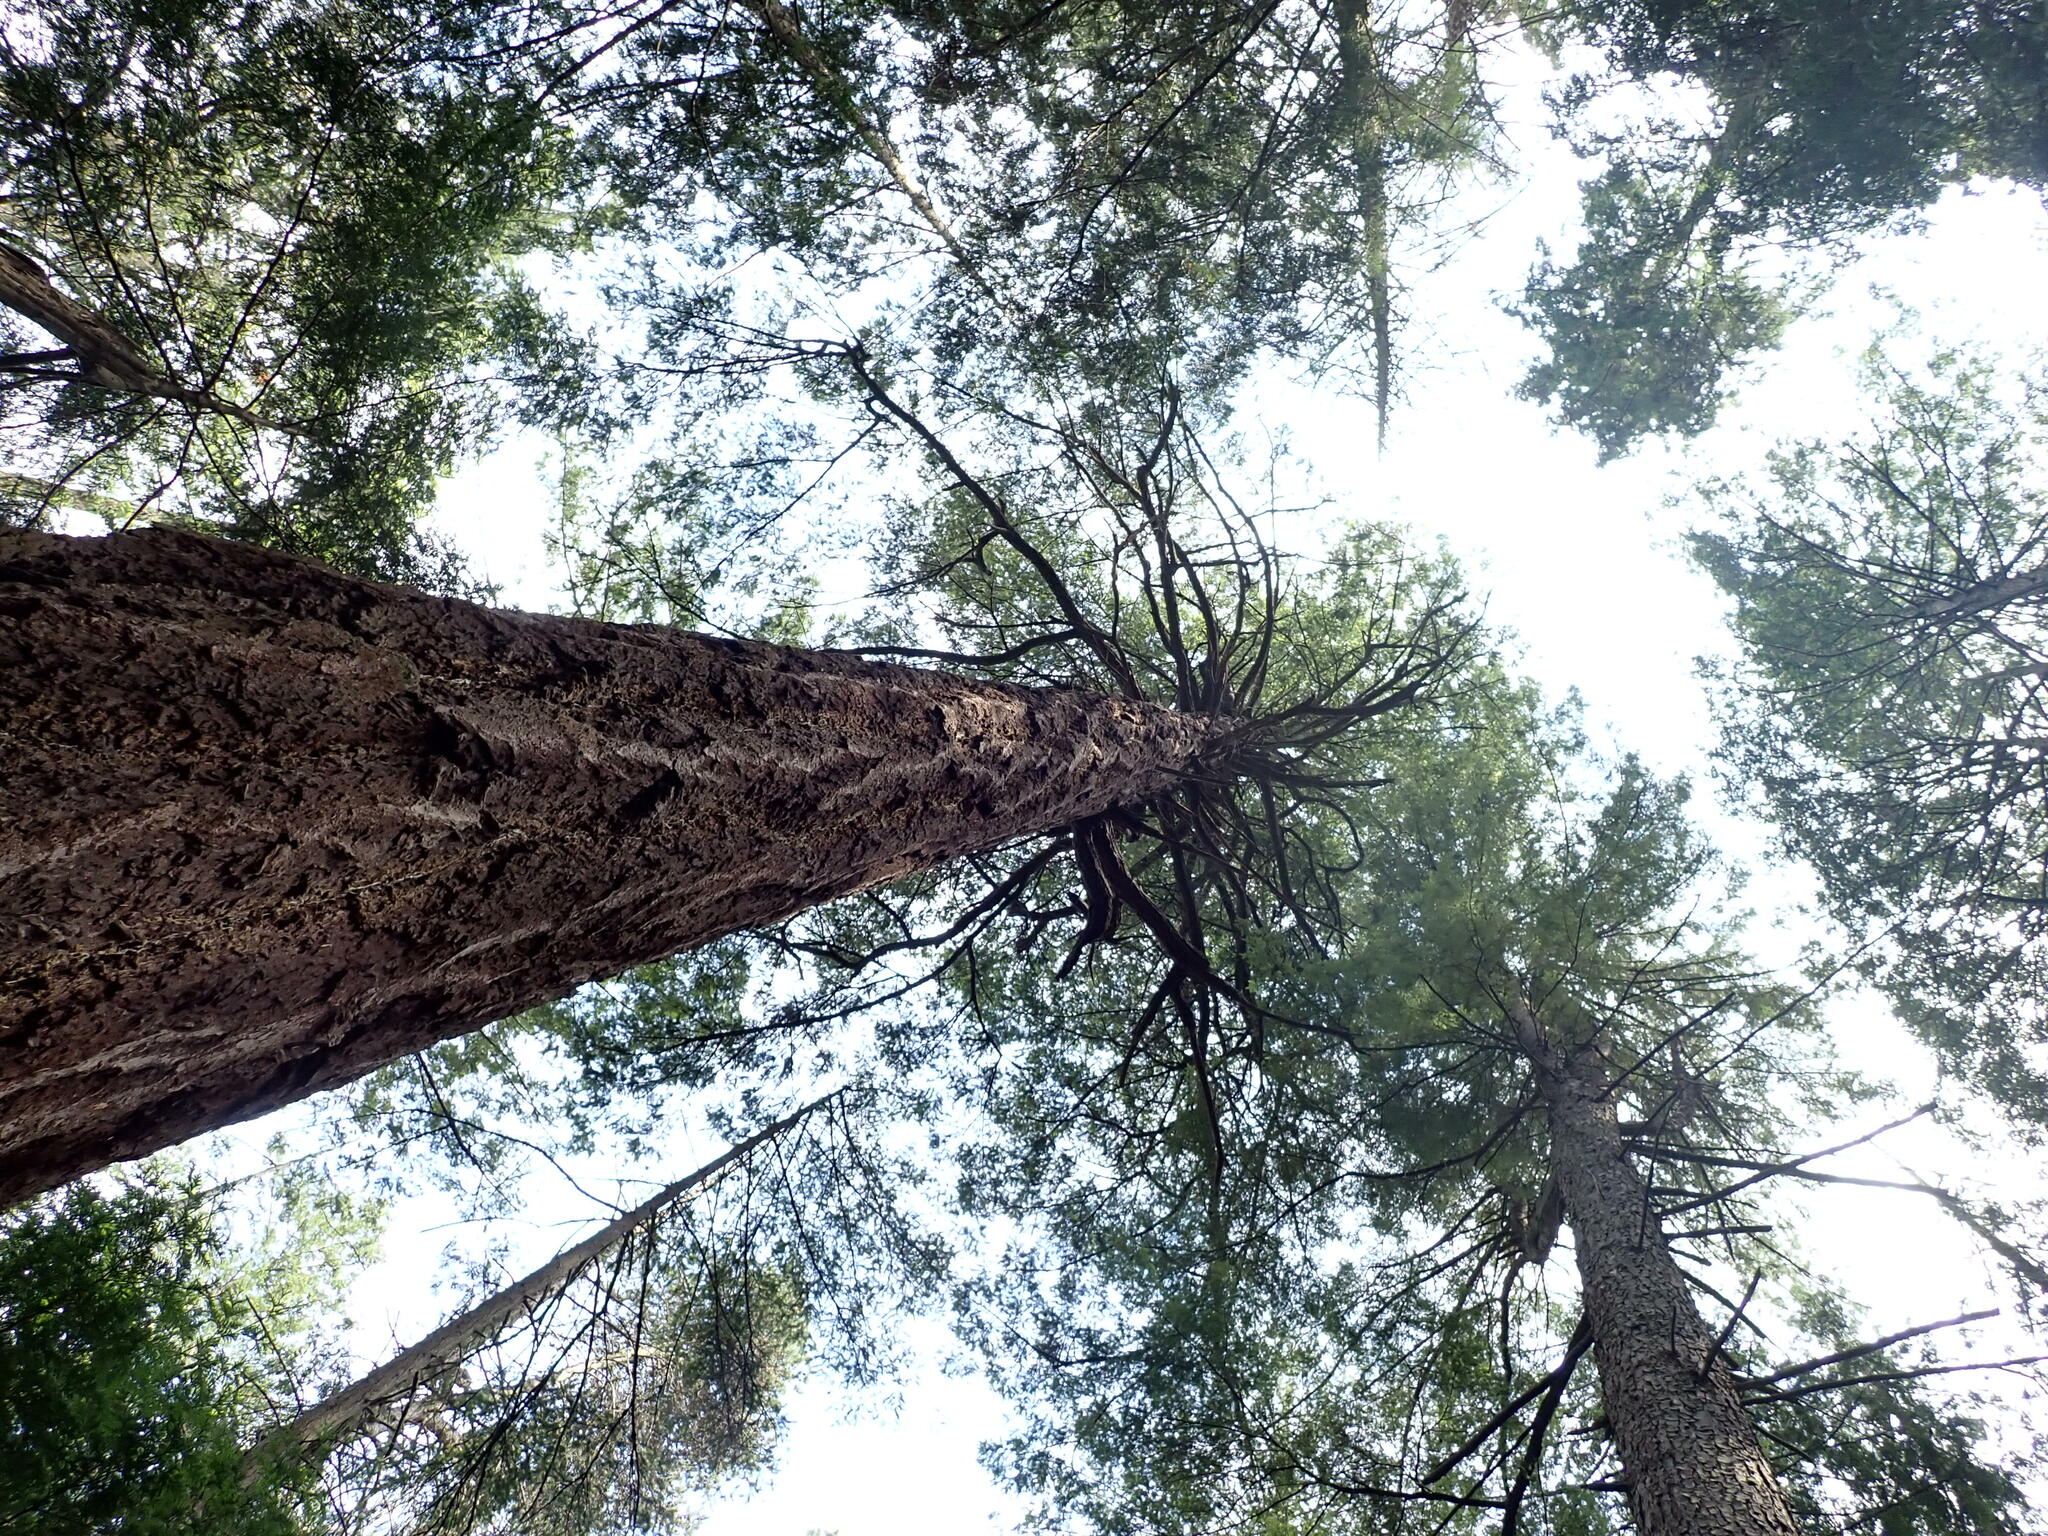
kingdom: Plantae
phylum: Tracheophyta
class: Pinopsida
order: Pinales
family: Pinaceae
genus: Pseudotsuga
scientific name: Pseudotsuga menziesii
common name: Douglas fir
